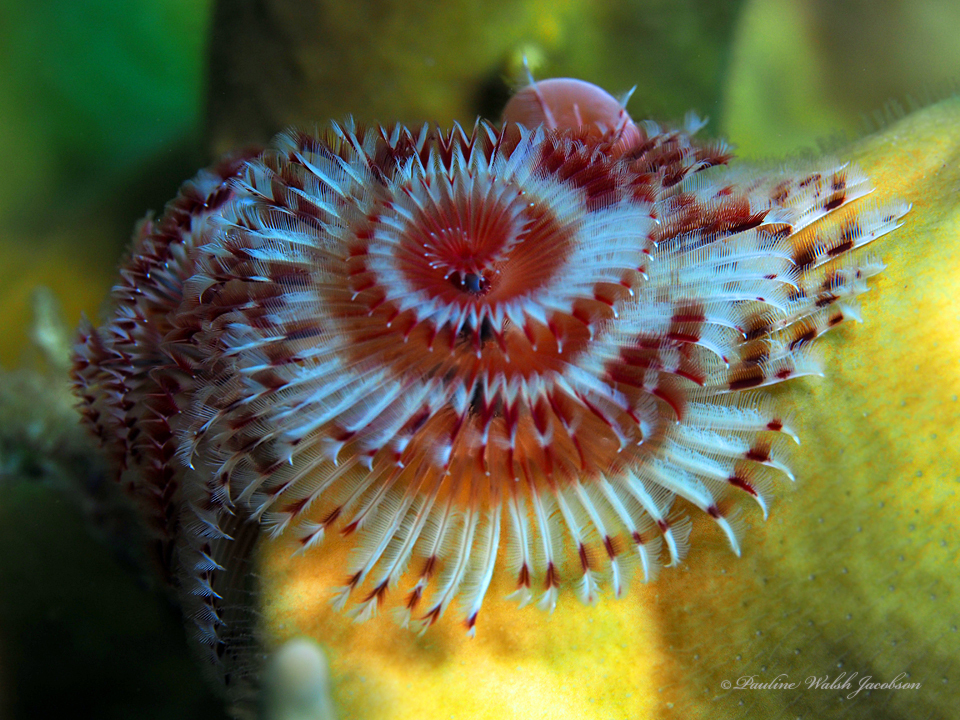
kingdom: Animalia
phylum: Annelida
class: Polychaeta
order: Sabellida
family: Serpulidae
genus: Spirobranchus
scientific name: Spirobranchus giganteus
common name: Christmas tree worm
